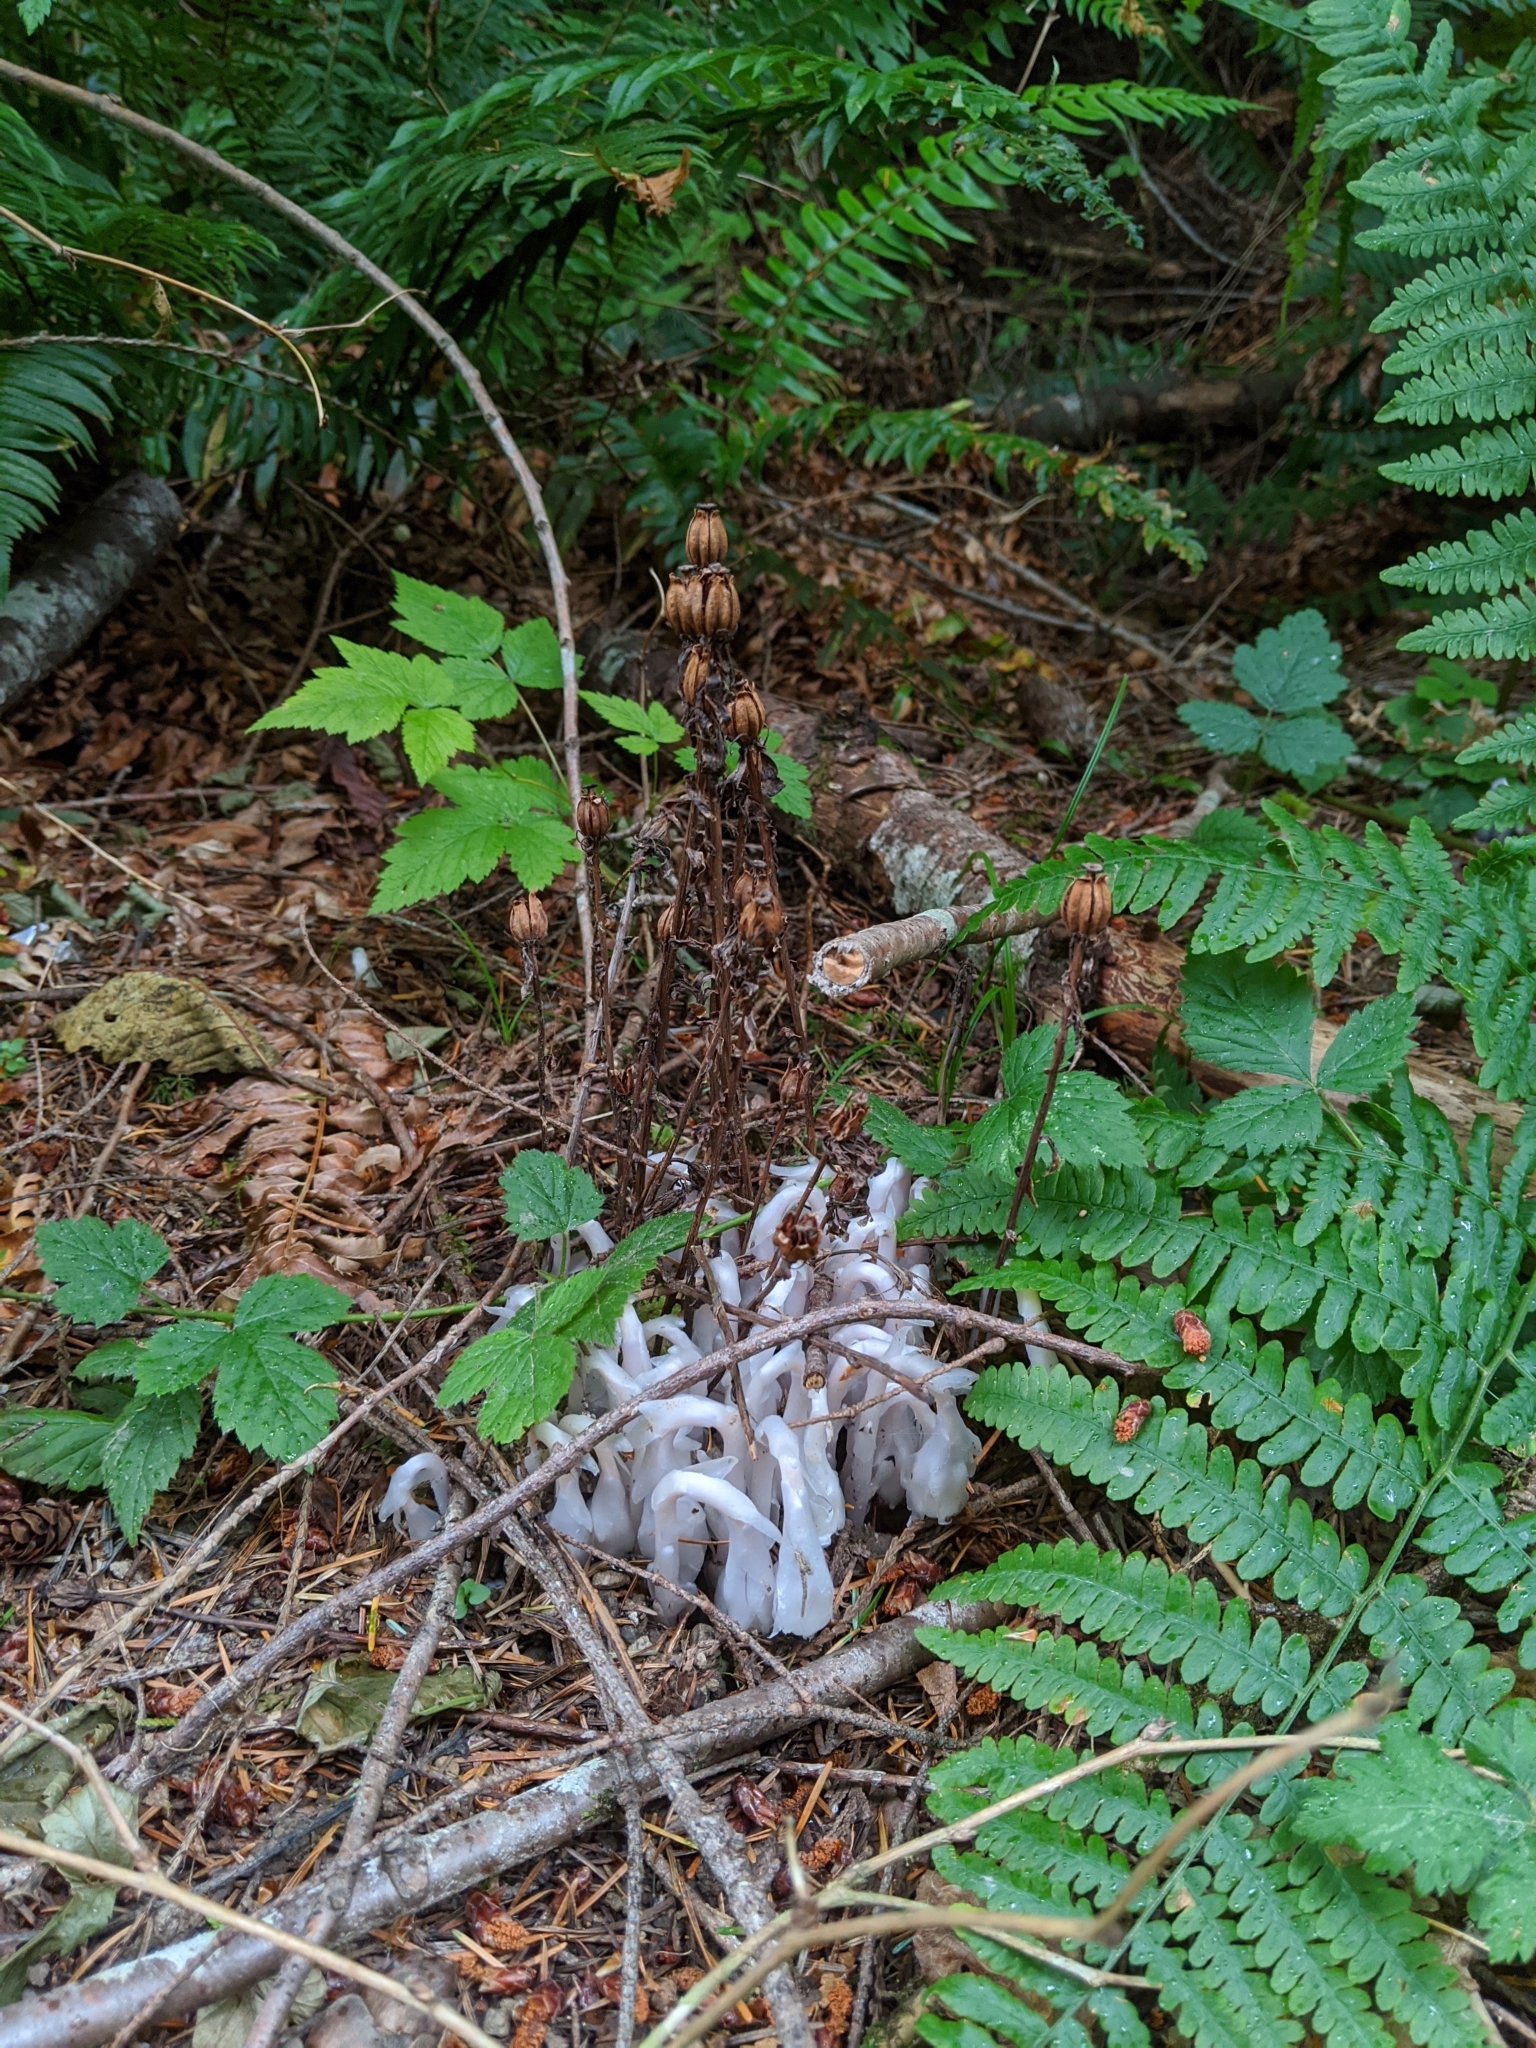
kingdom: Plantae
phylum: Tracheophyta
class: Magnoliopsida
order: Ericales
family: Ericaceae
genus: Monotropa
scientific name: Monotropa uniflora
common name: Convulsion root
